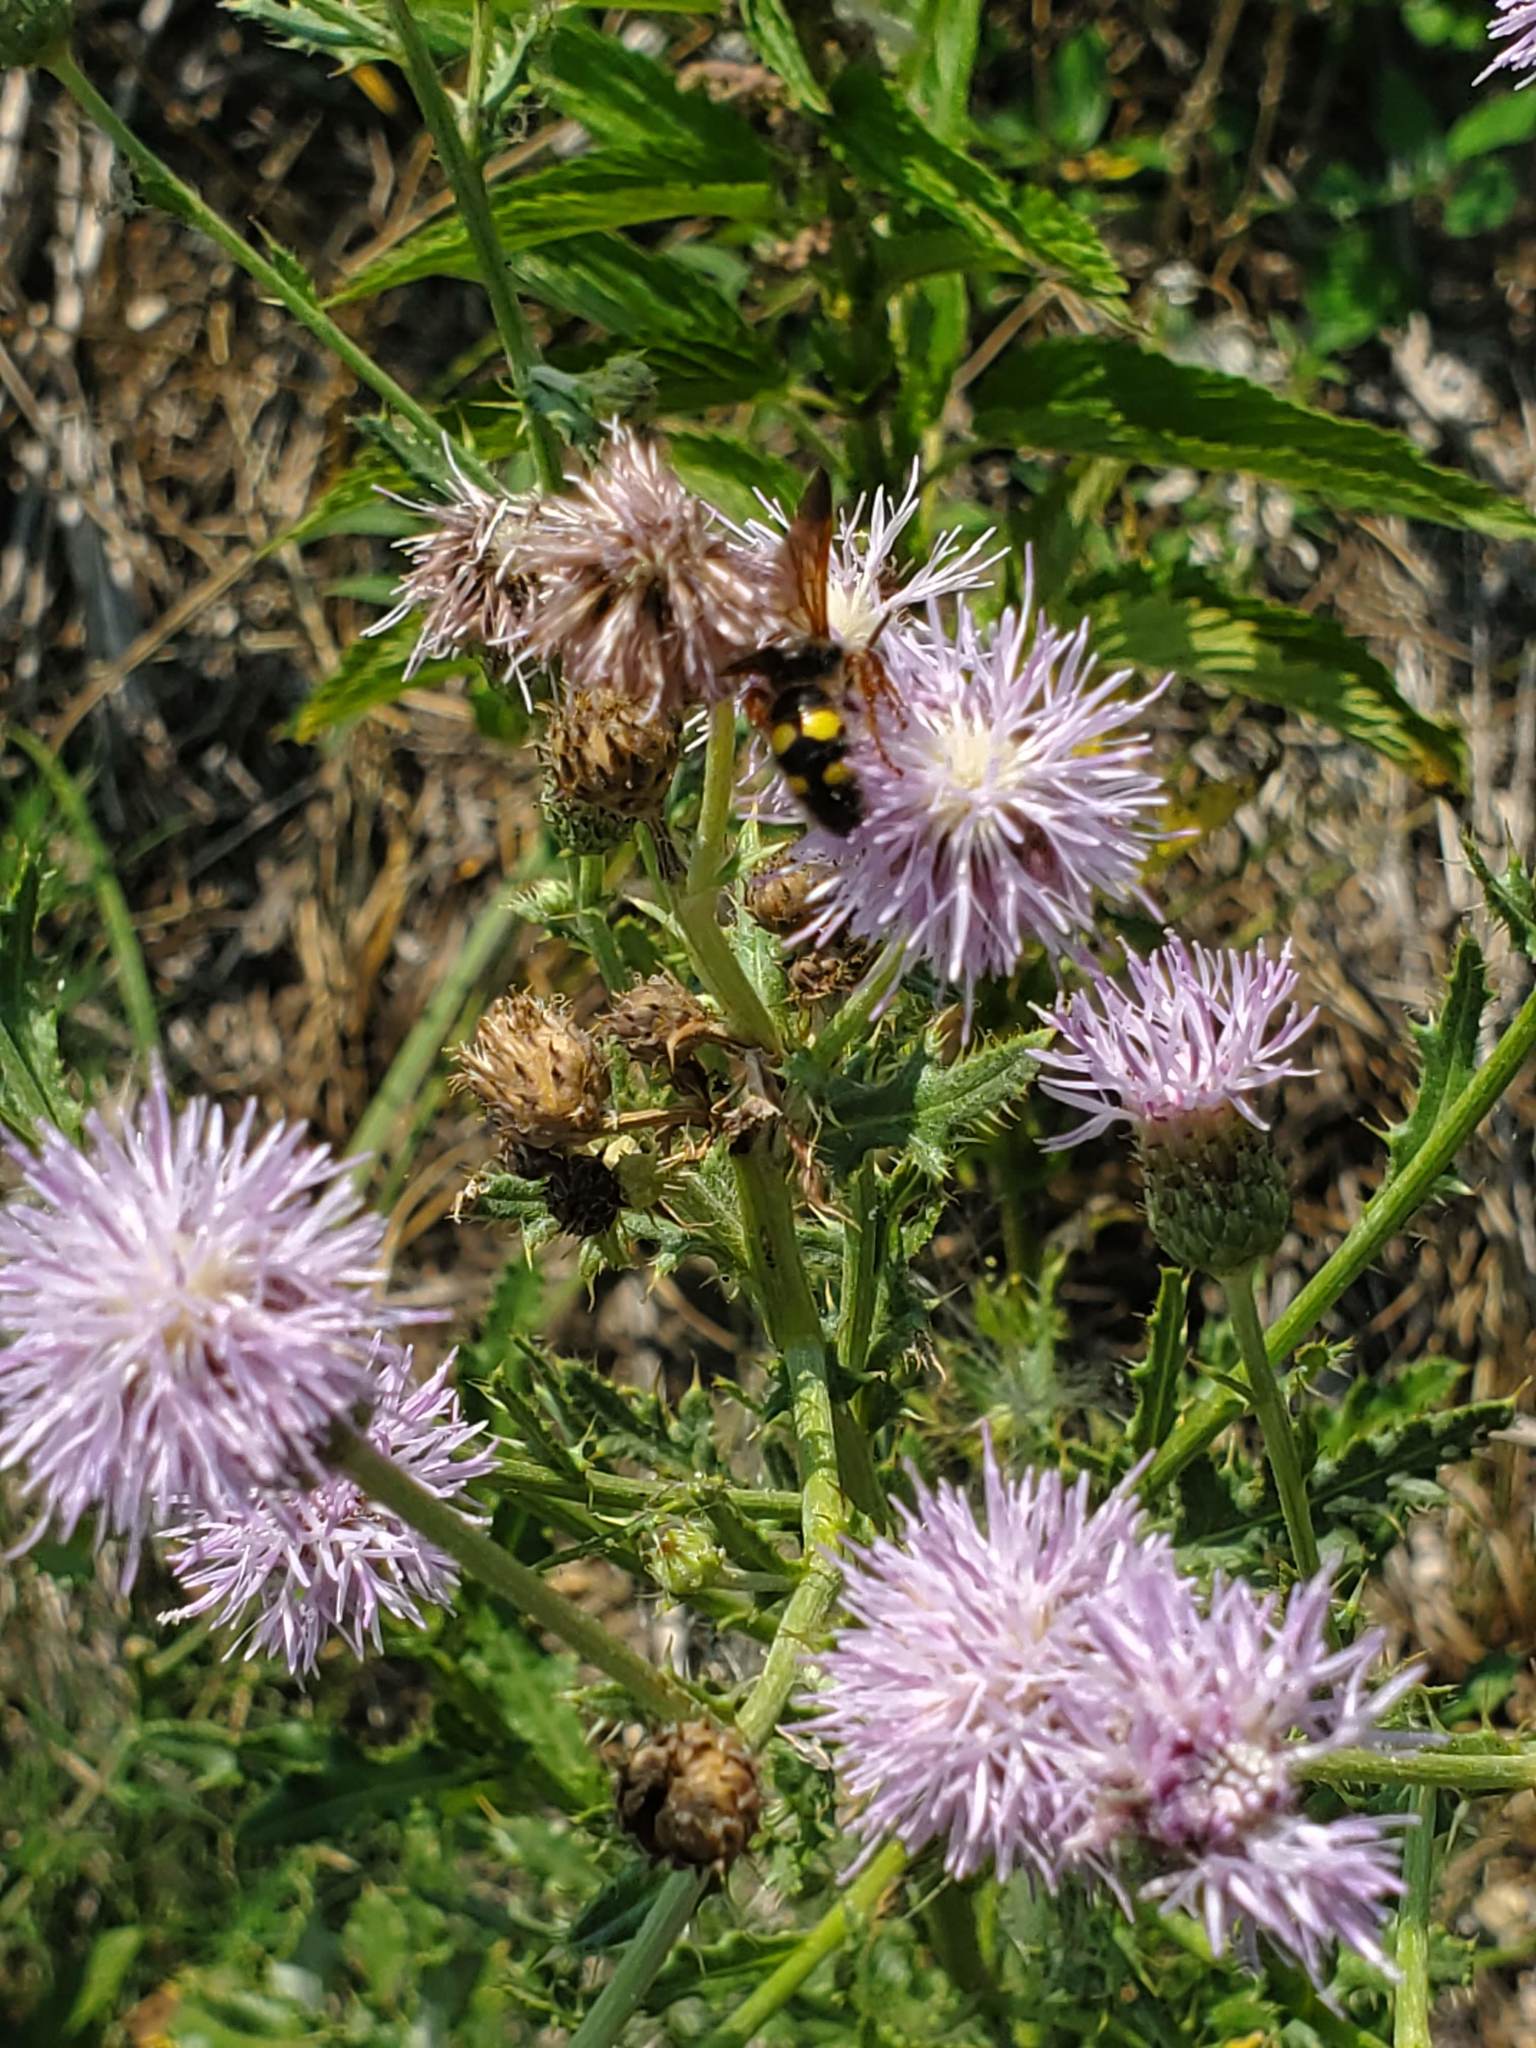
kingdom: Animalia
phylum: Arthropoda
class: Insecta
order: Hymenoptera
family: Scoliidae
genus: Scolia
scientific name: Scolia nobilitata
